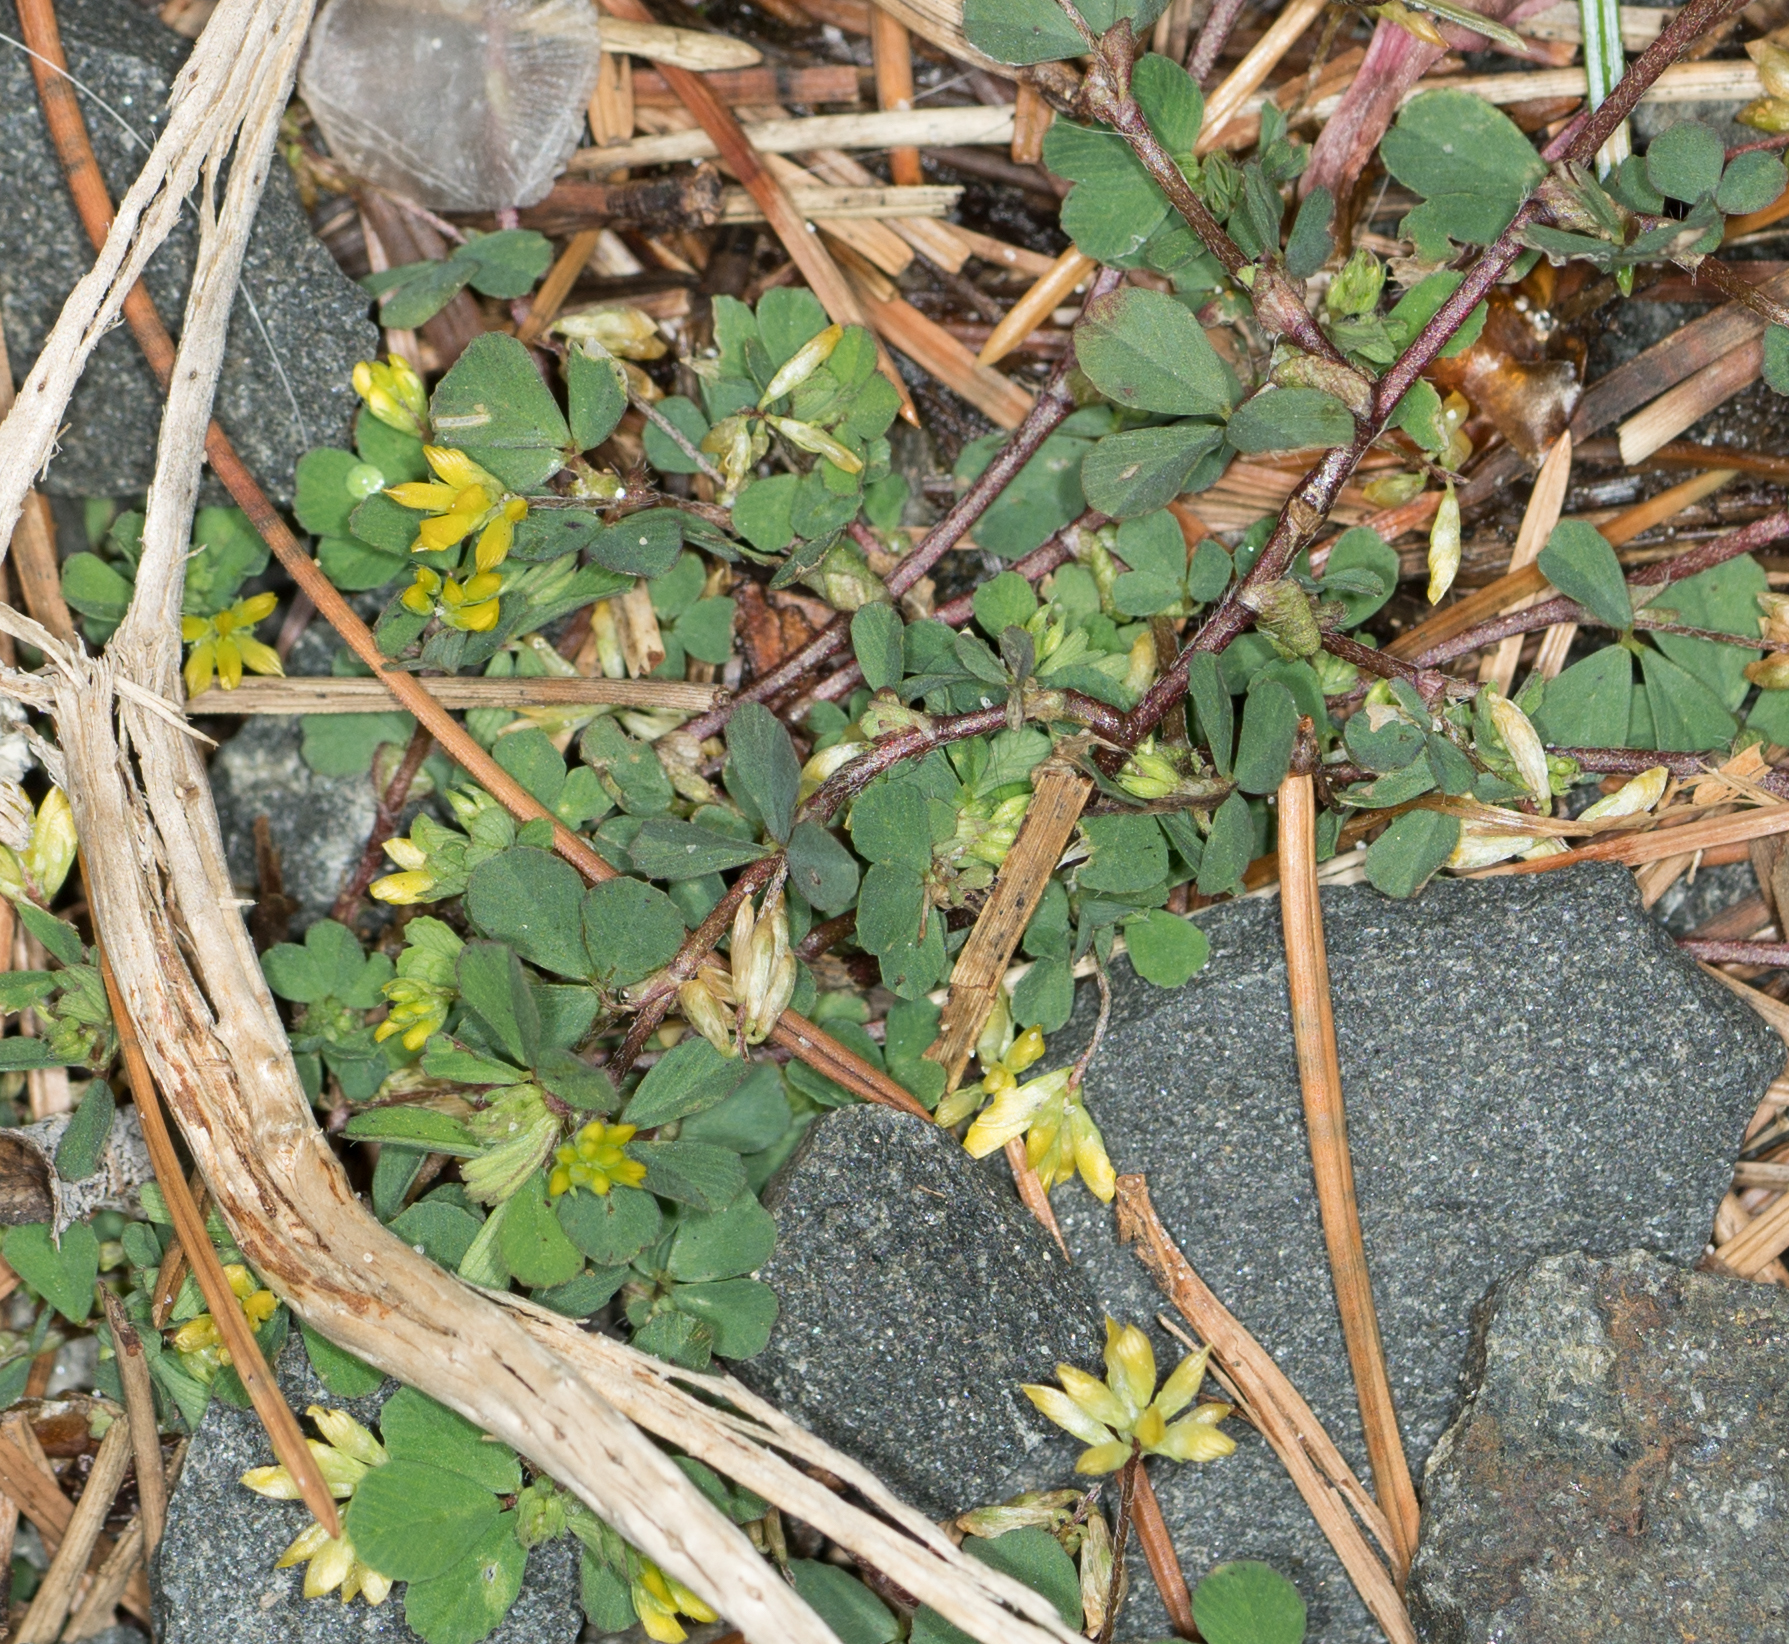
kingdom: Plantae
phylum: Tracheophyta
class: Magnoliopsida
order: Fabales
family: Fabaceae
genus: Trifolium
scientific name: Trifolium dubium
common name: Suckling clover
